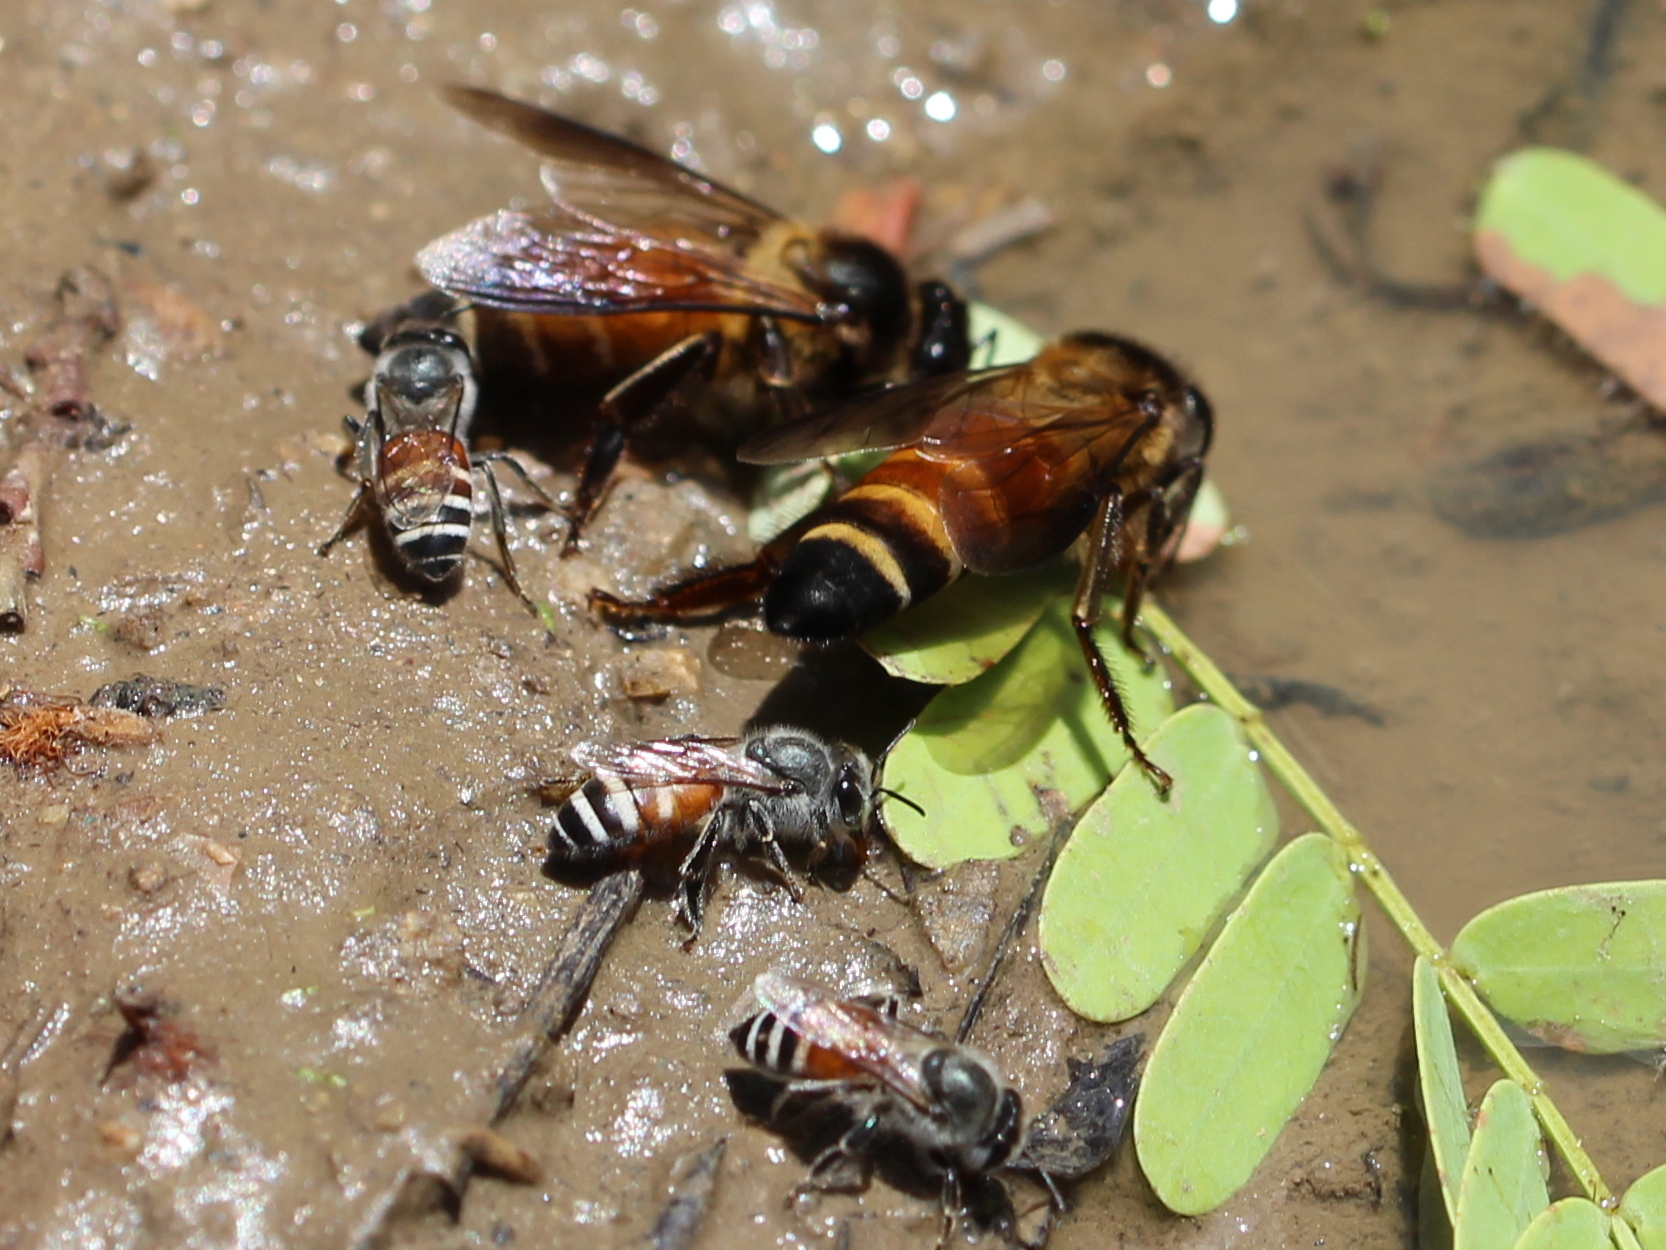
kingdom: Animalia
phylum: Arthropoda
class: Insecta
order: Hymenoptera
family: Apidae
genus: Apis
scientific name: Apis florea
